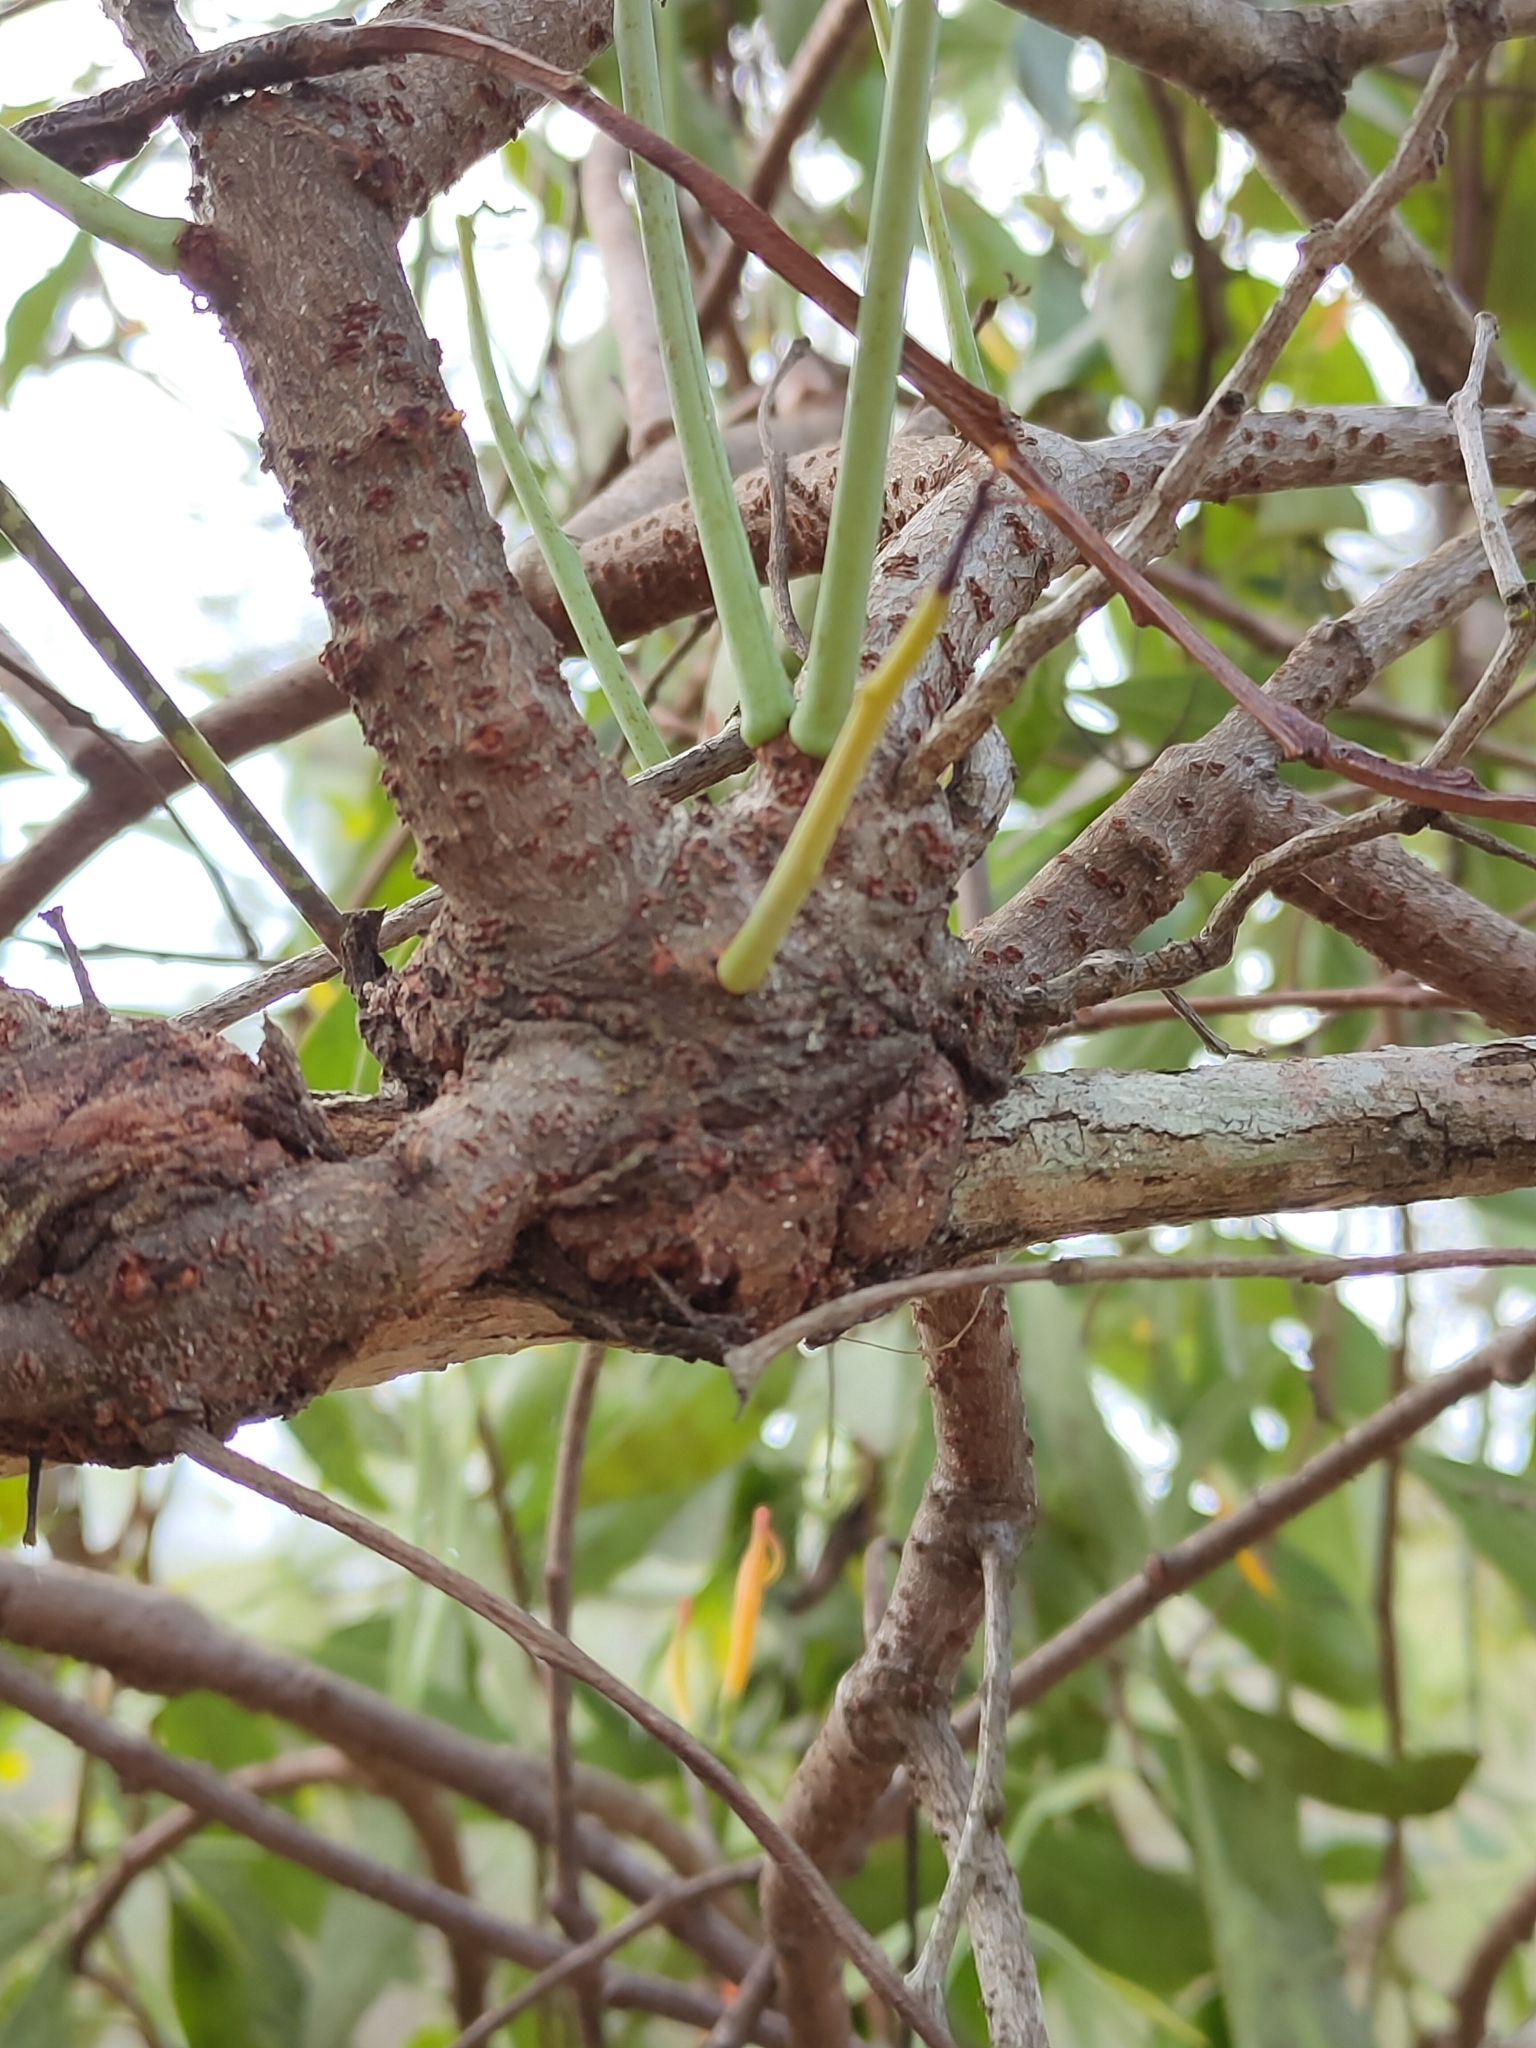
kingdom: Plantae
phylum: Tracheophyta
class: Magnoliopsida
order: Santalales
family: Loranthaceae
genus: Dendrophthoe
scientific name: Dendrophthoe glabrescens
